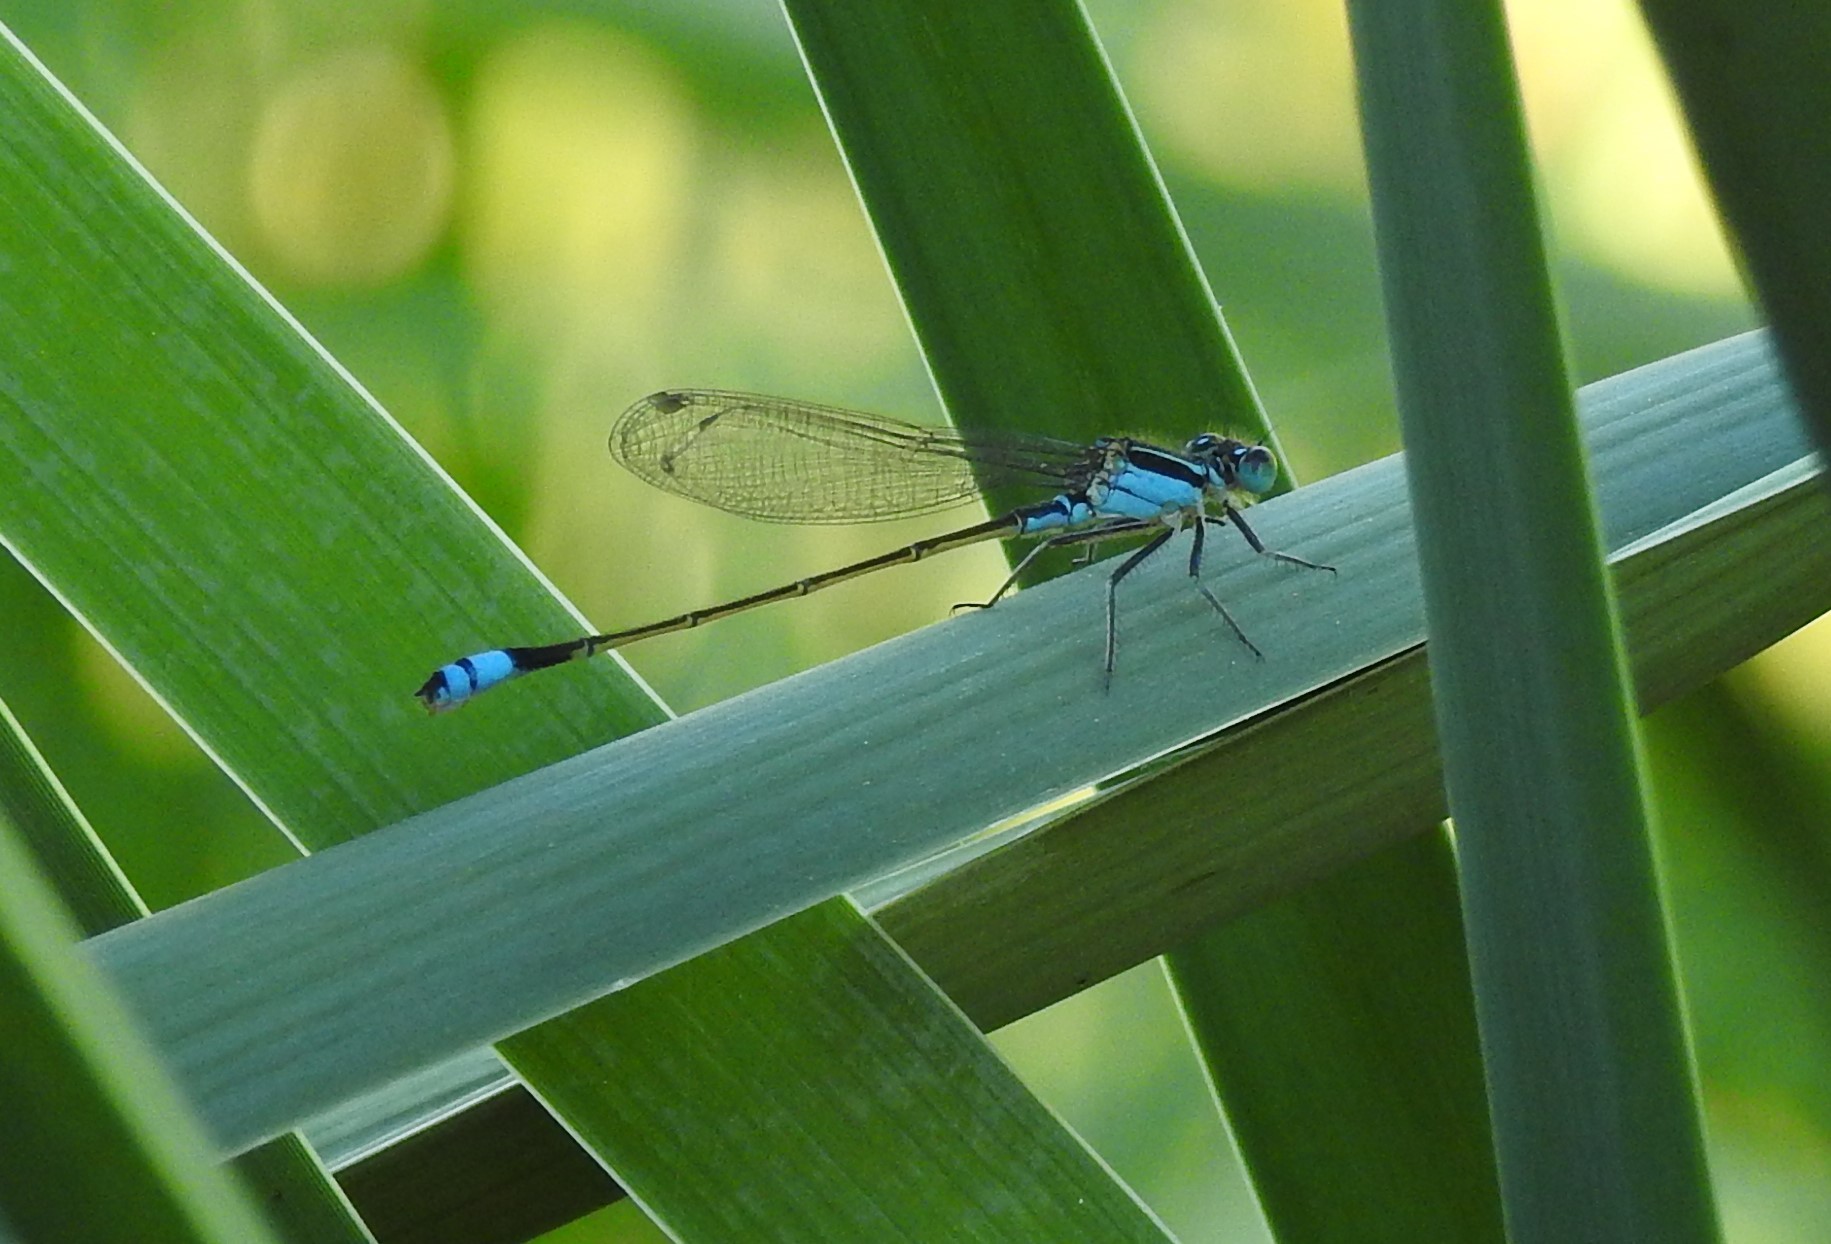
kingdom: Animalia
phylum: Arthropoda
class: Insecta
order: Odonata
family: Coenagrionidae
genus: Ischnura
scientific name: Ischnura ramburii
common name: Rambur's forktail
